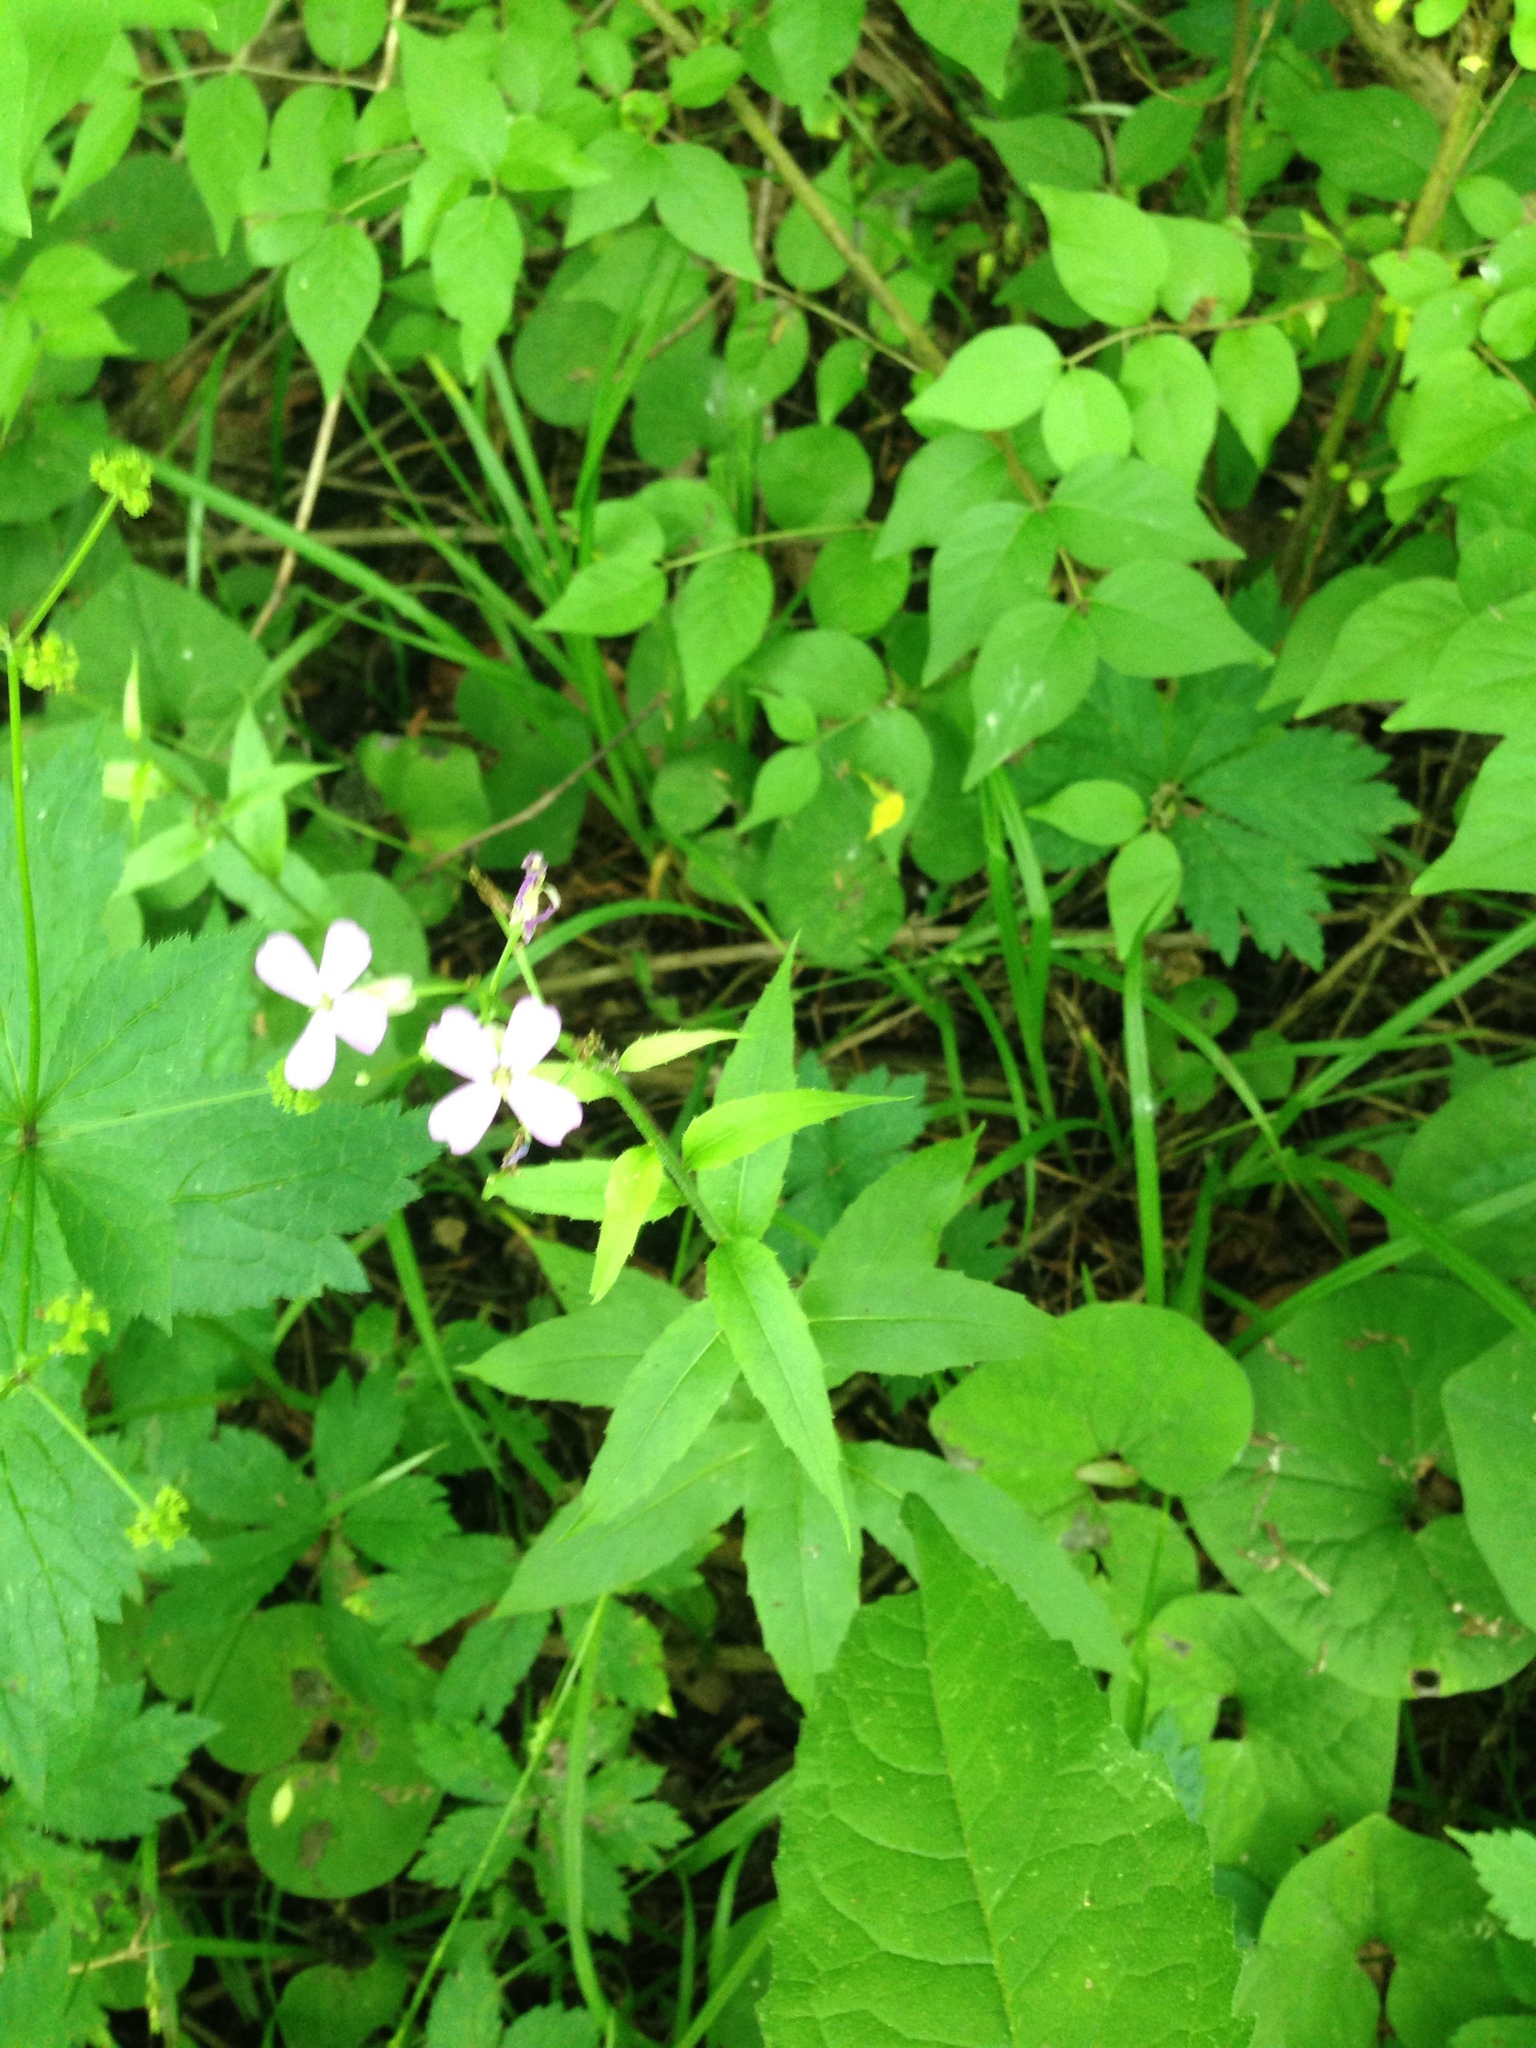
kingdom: Plantae
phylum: Tracheophyta
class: Magnoliopsida
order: Brassicales
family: Brassicaceae
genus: Hesperis
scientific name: Hesperis matronalis
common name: Dame's-violet
